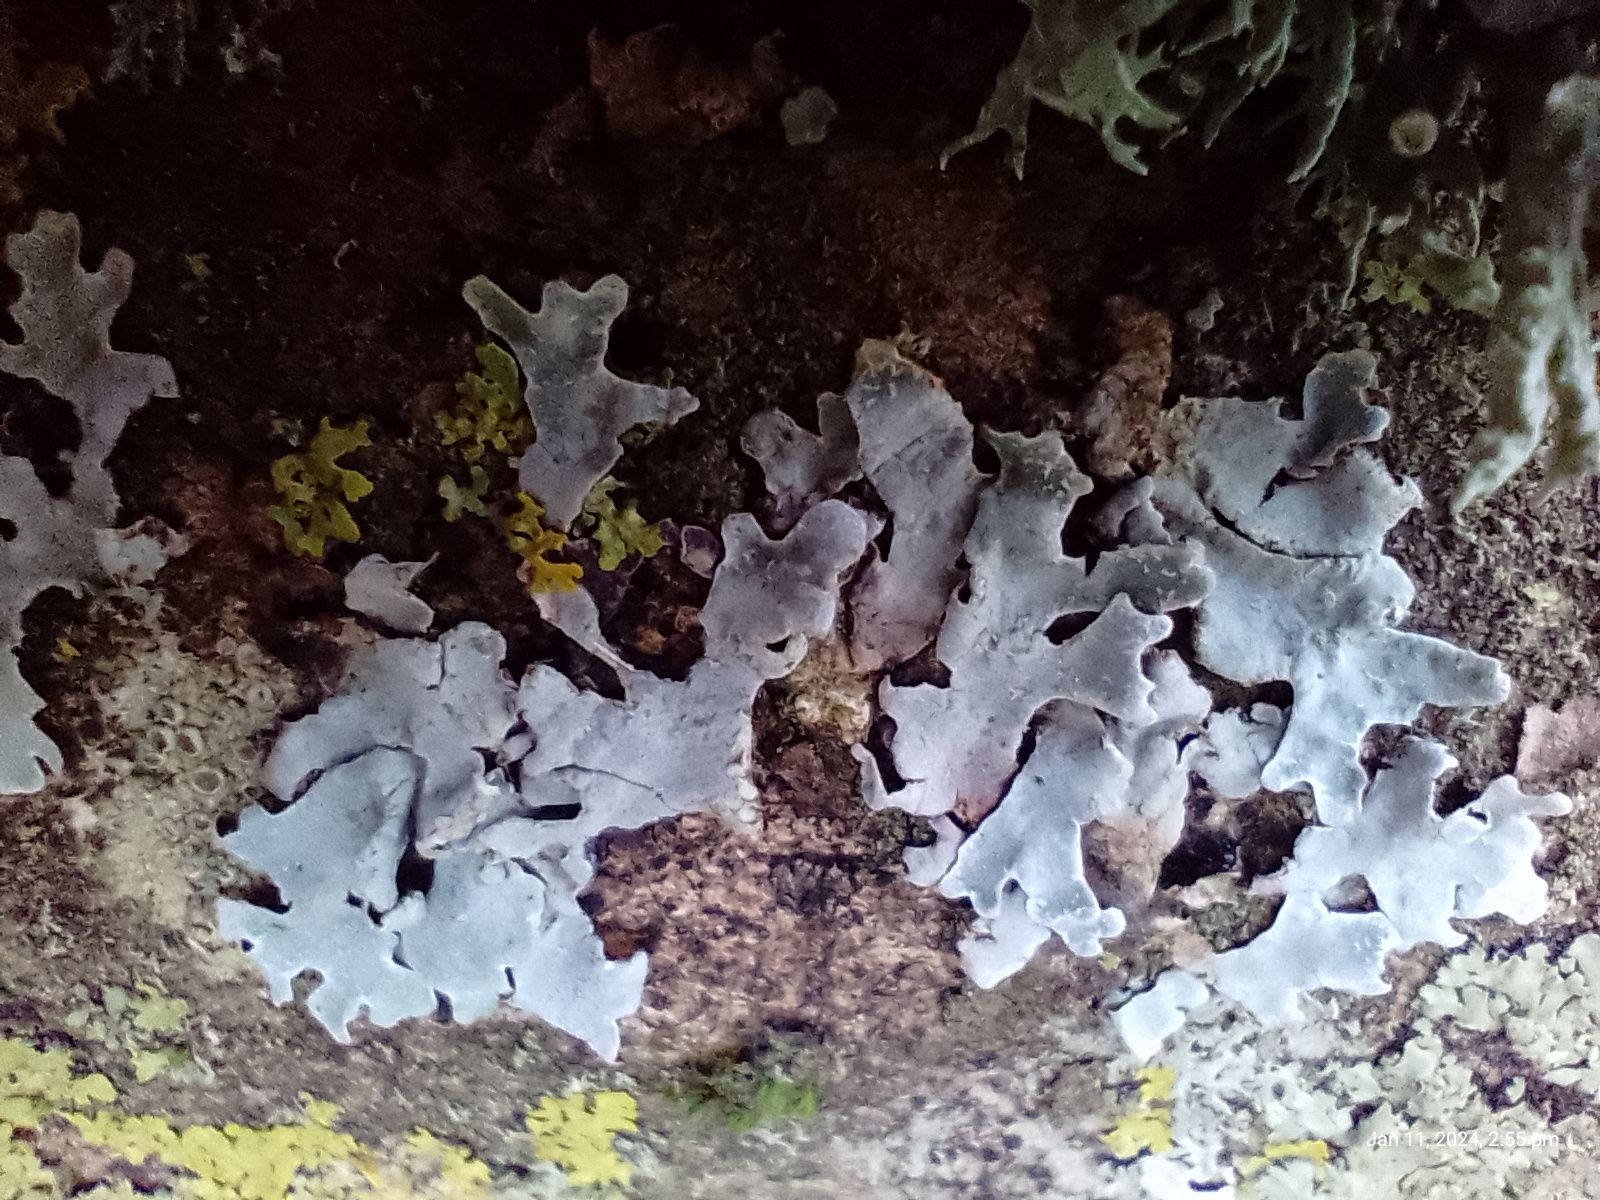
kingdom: Fungi
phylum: Ascomycota
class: Lecanoromycetes
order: Lecanorales
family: Parmeliaceae
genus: Parmelia
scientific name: Parmelia sulcata
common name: Netted shield lichen
